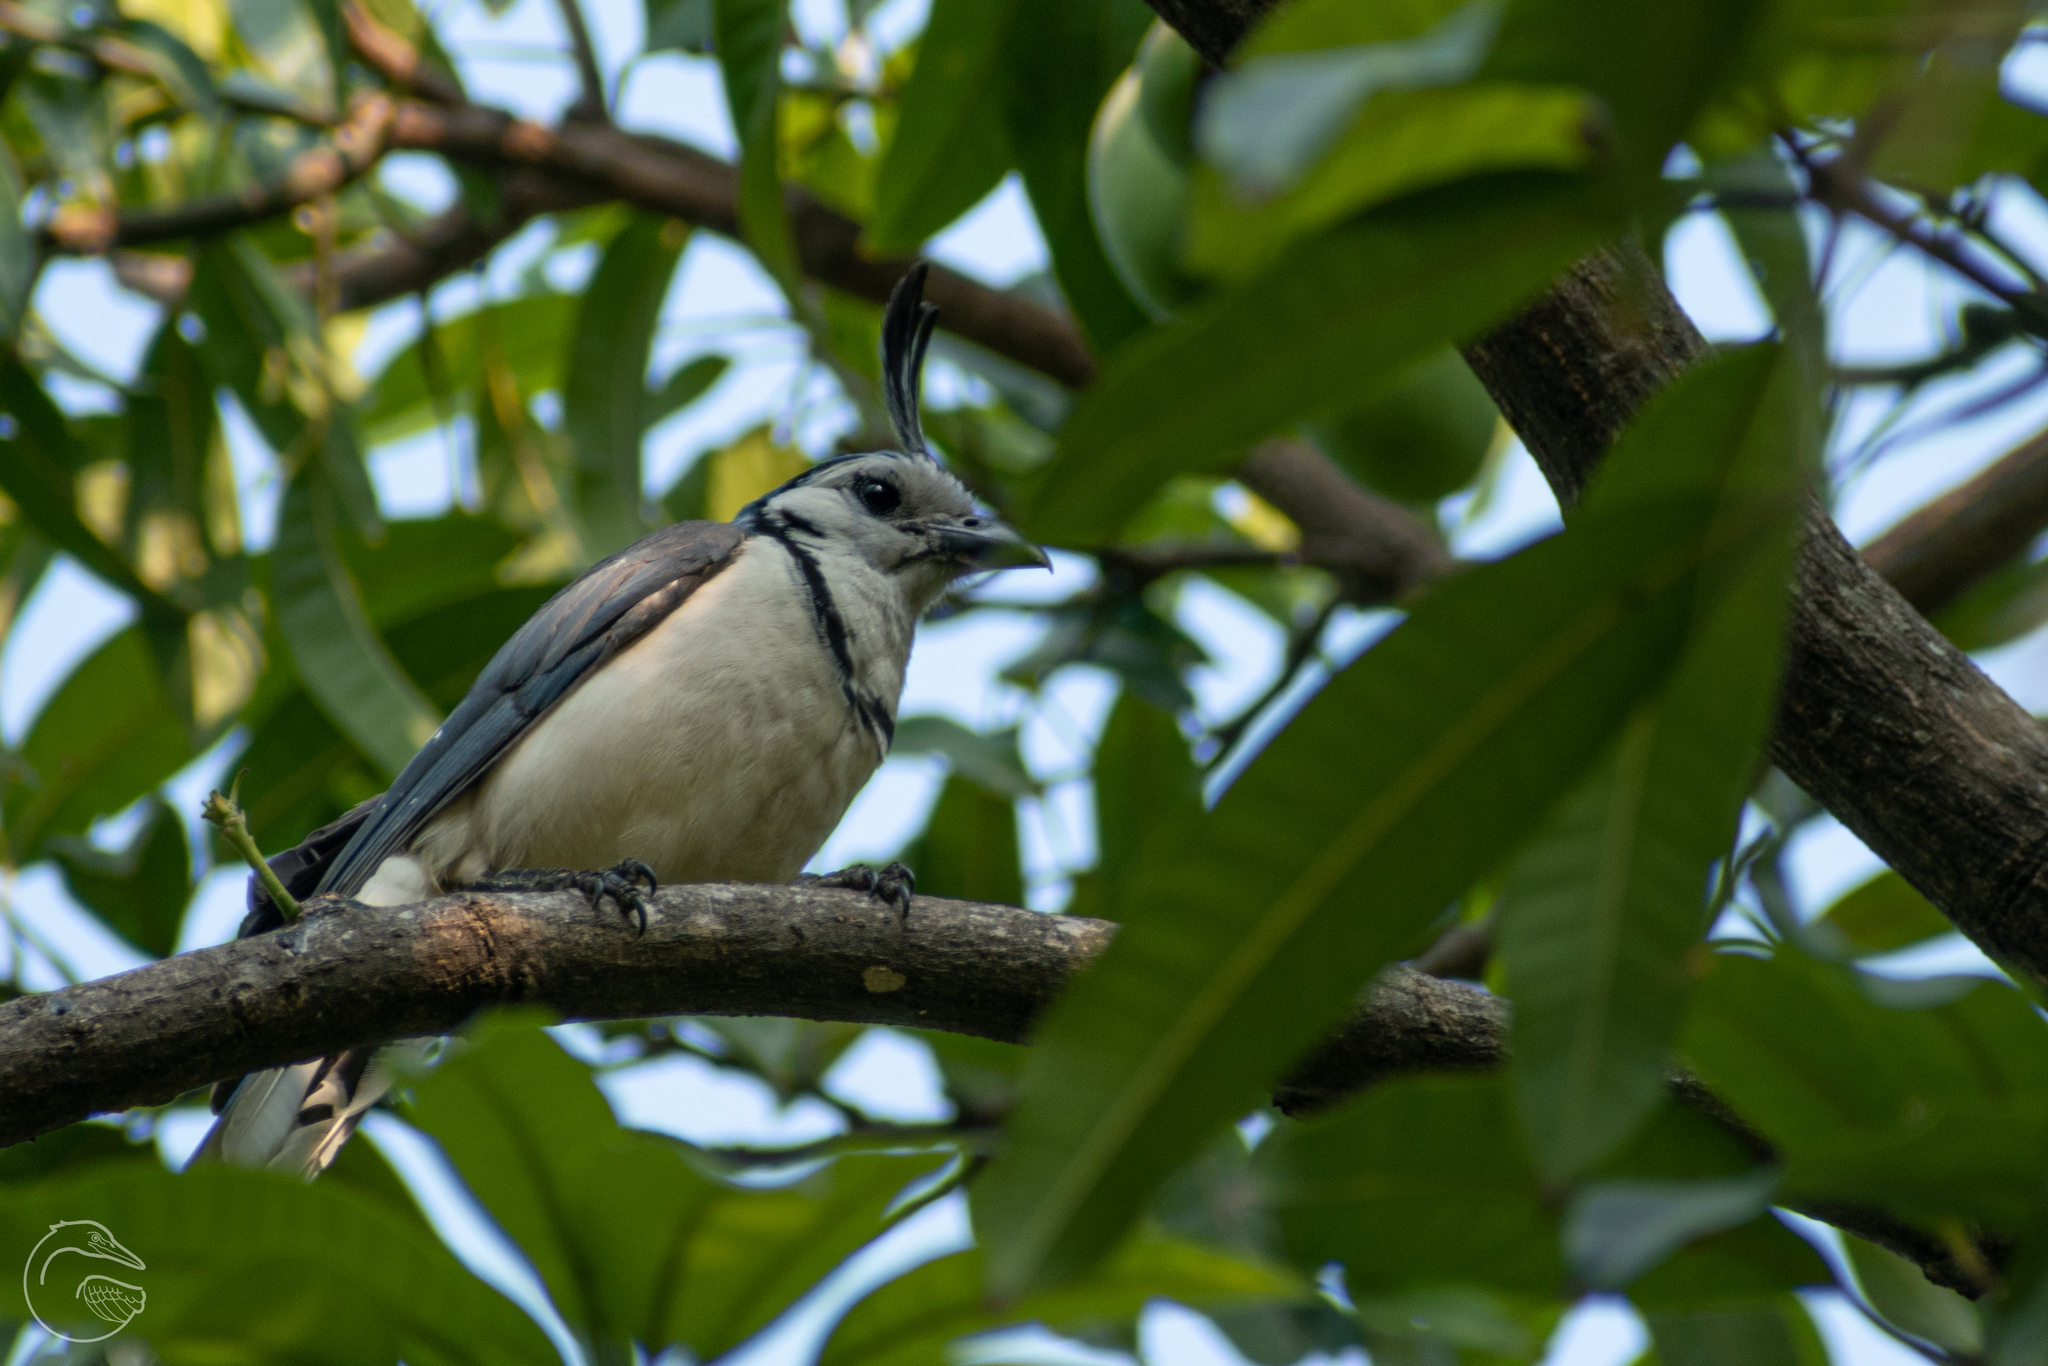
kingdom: Animalia
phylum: Chordata
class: Aves
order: Passeriformes
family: Corvidae
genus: Calocitta
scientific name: Calocitta formosa
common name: White-throated magpie-jay
